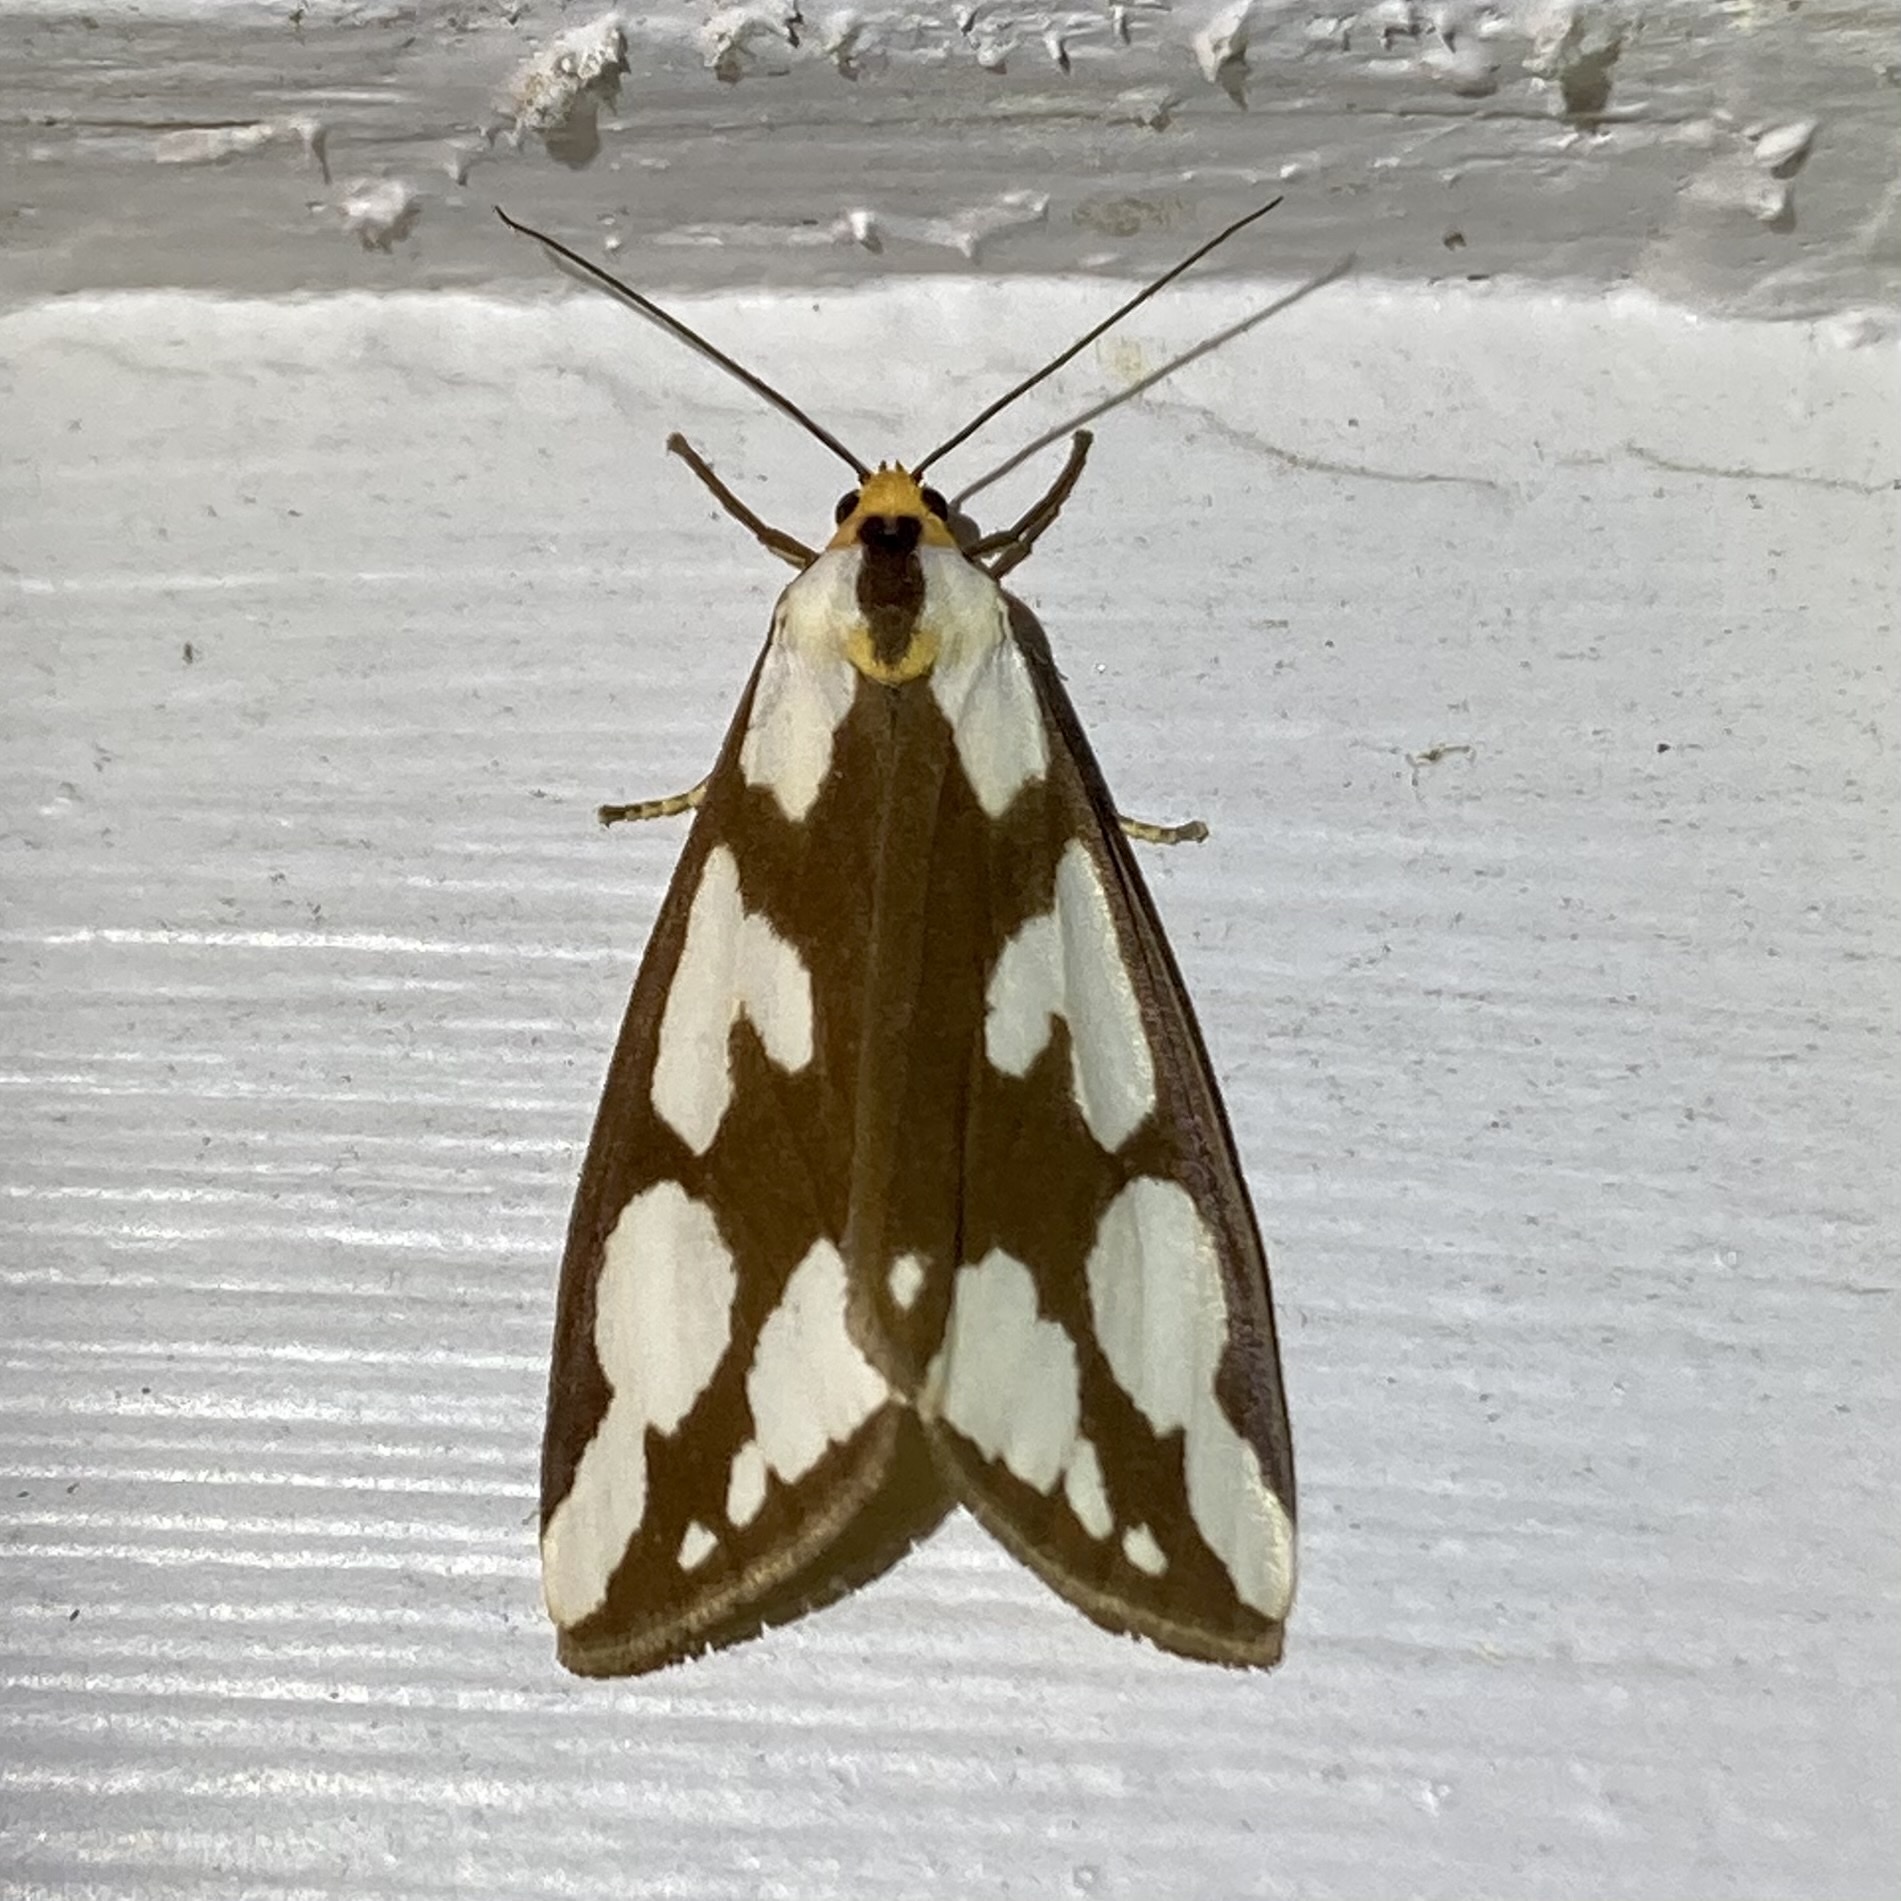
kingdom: Animalia
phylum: Arthropoda
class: Insecta
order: Lepidoptera
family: Erebidae
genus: Haploa
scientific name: Haploa confusa
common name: Confused haploa moth
